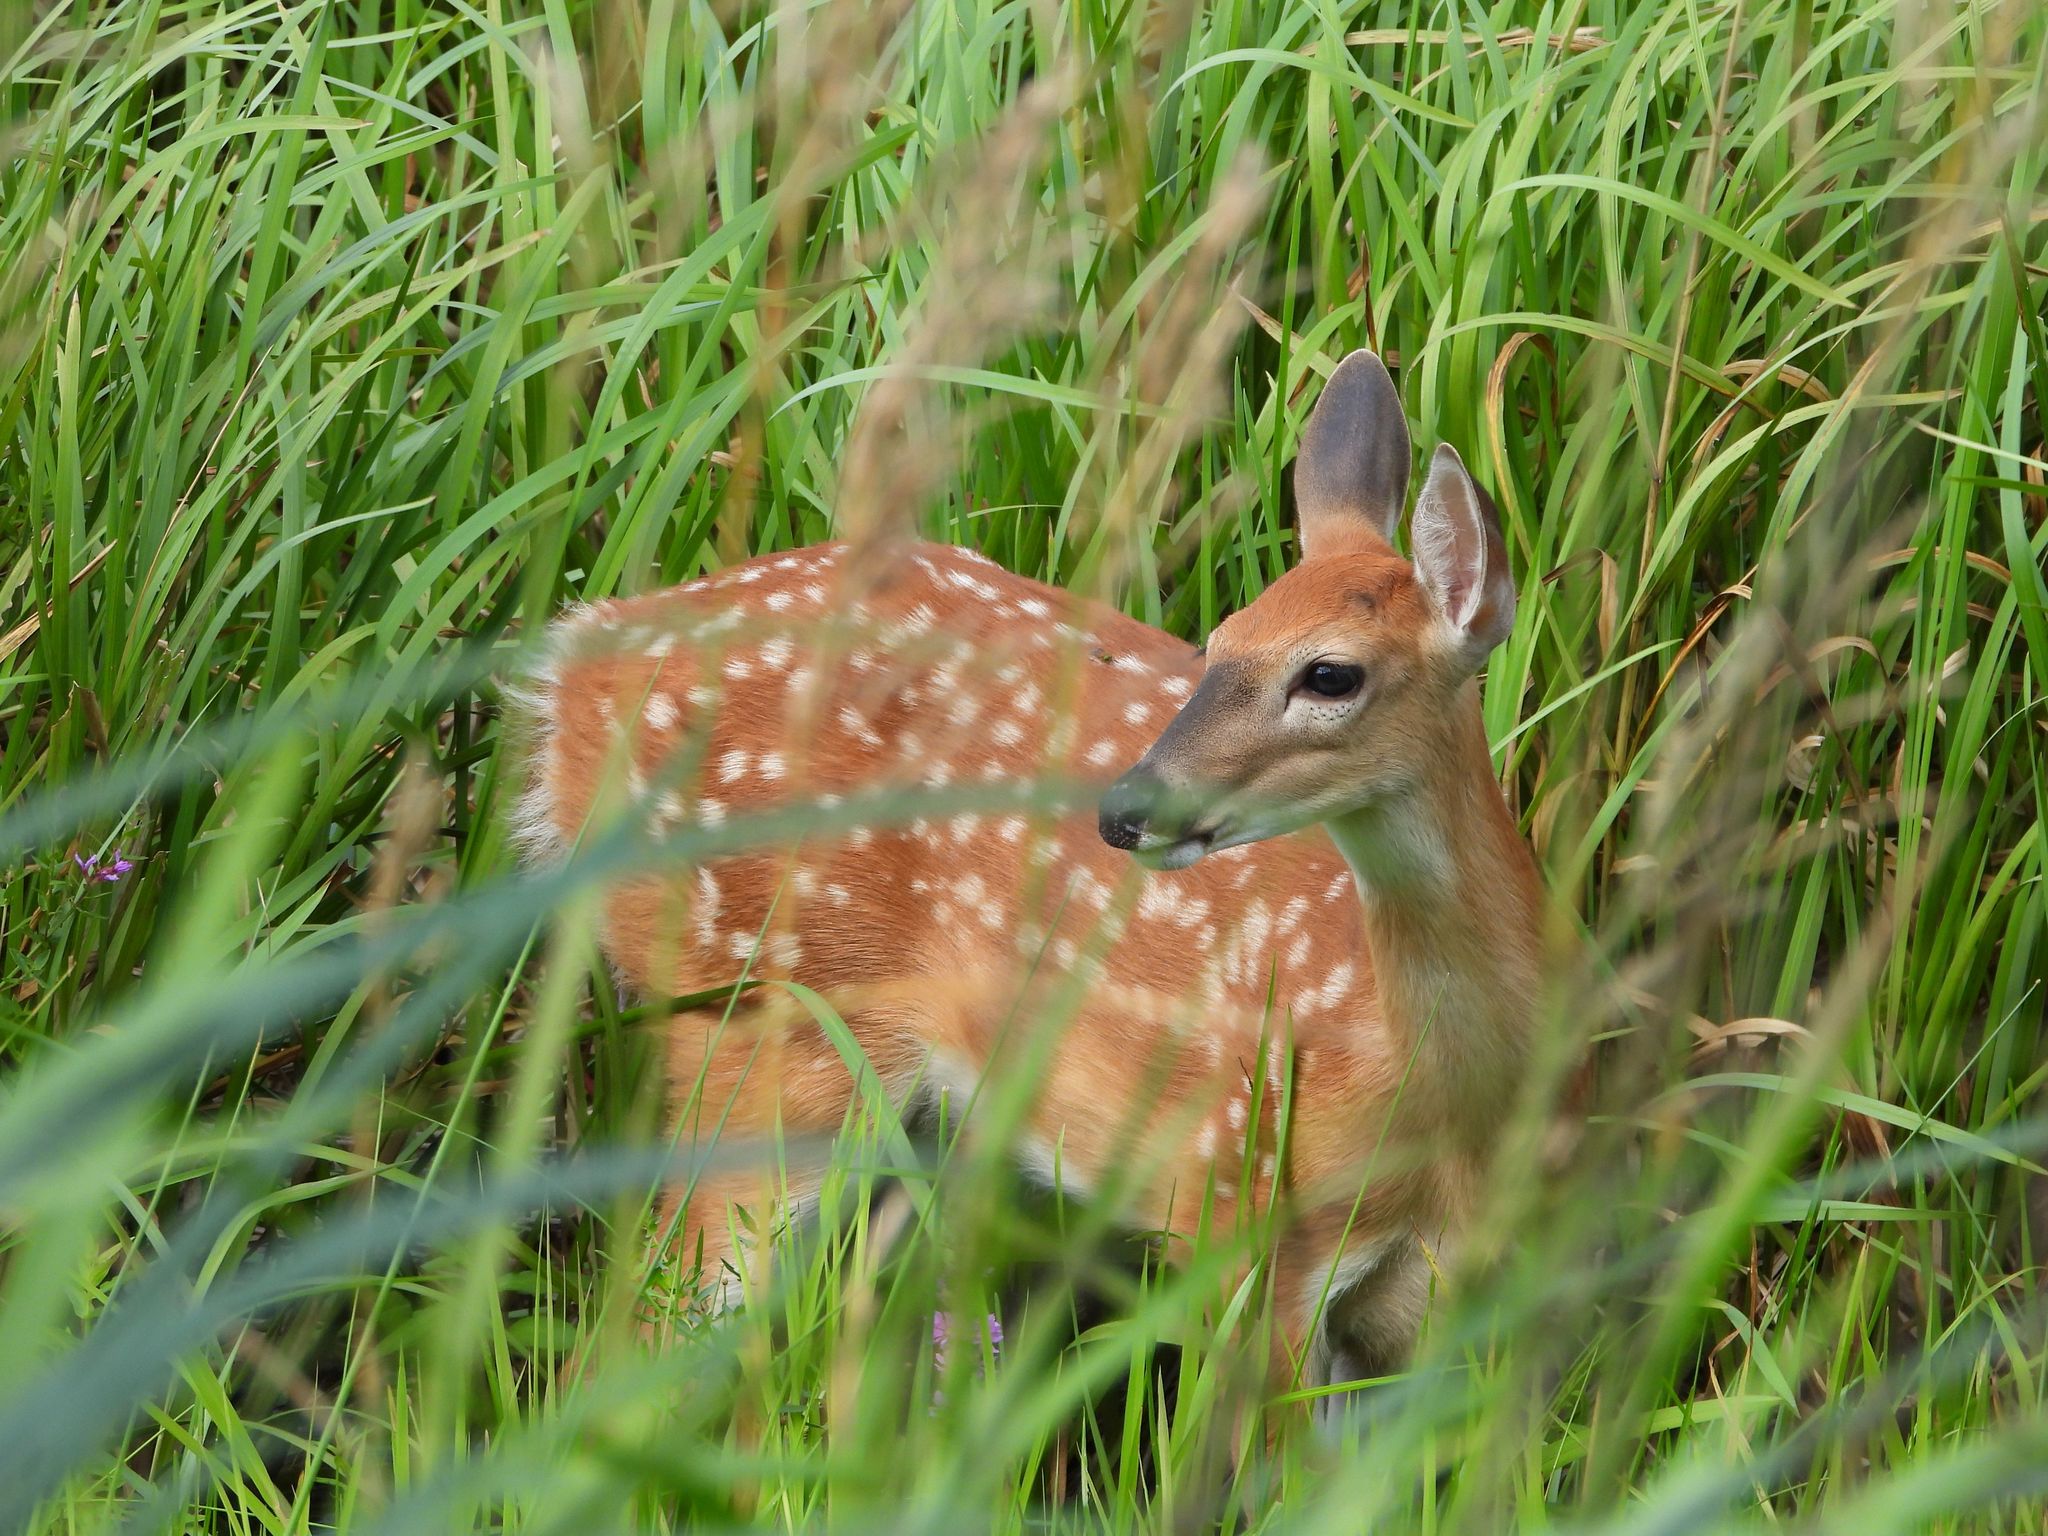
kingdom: Animalia
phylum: Chordata
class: Mammalia
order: Artiodactyla
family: Cervidae
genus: Odocoileus
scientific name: Odocoileus virginianus
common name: White-tailed deer
